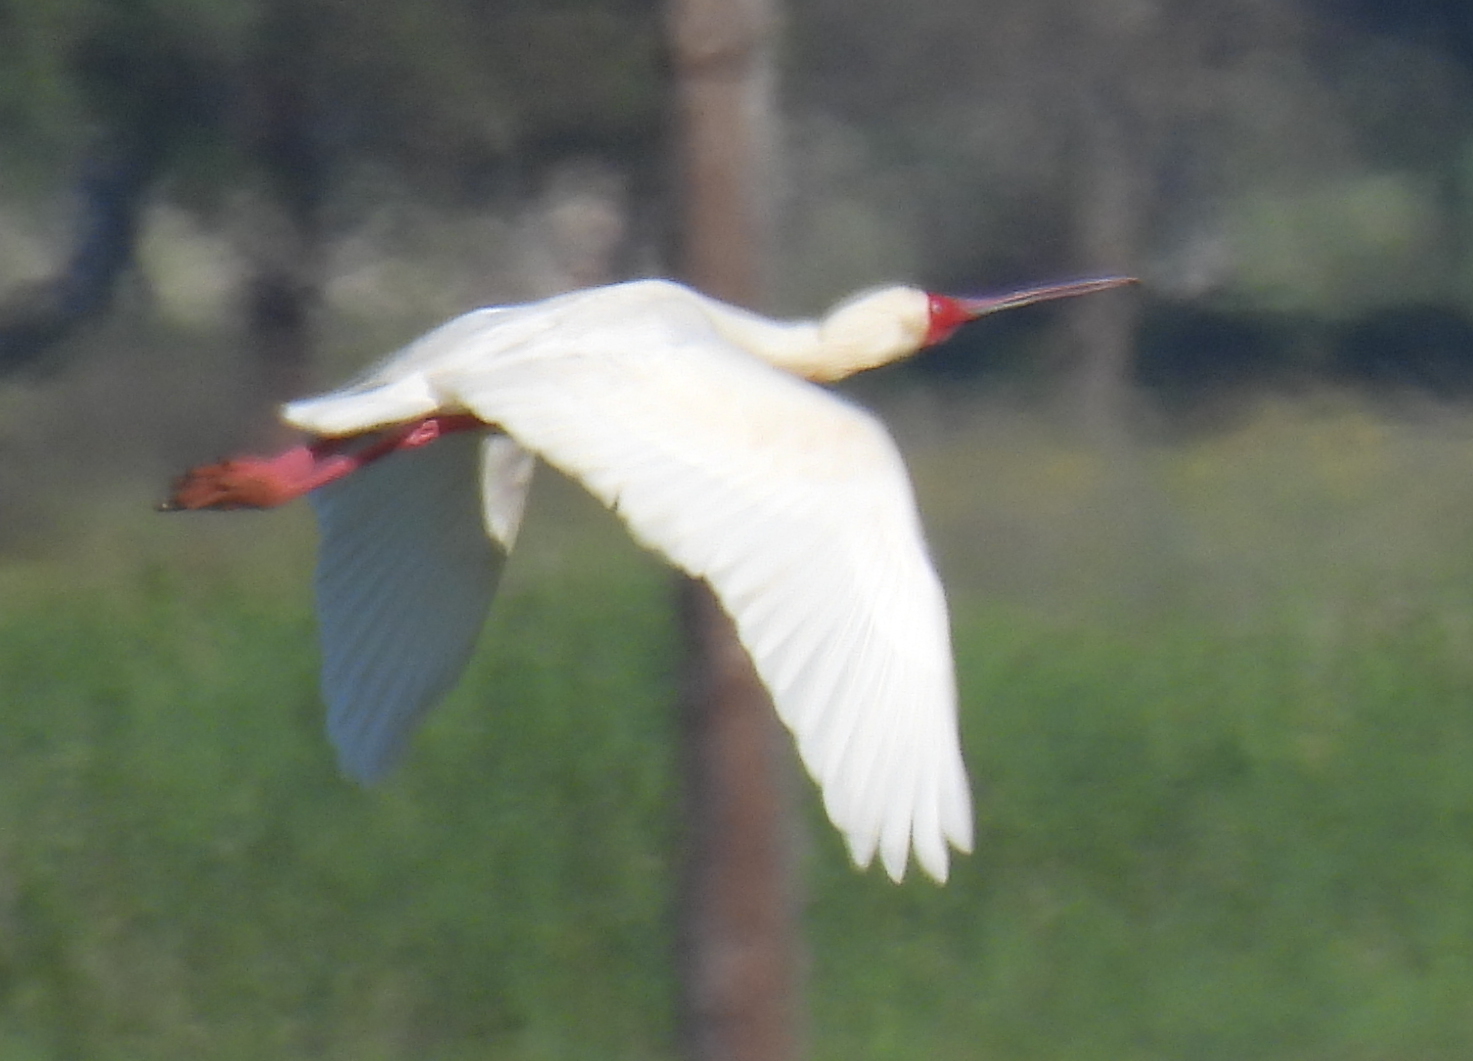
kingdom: Animalia
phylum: Chordata
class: Aves
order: Pelecaniformes
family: Threskiornithidae
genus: Platalea
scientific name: Platalea alba
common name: African spoonbill
